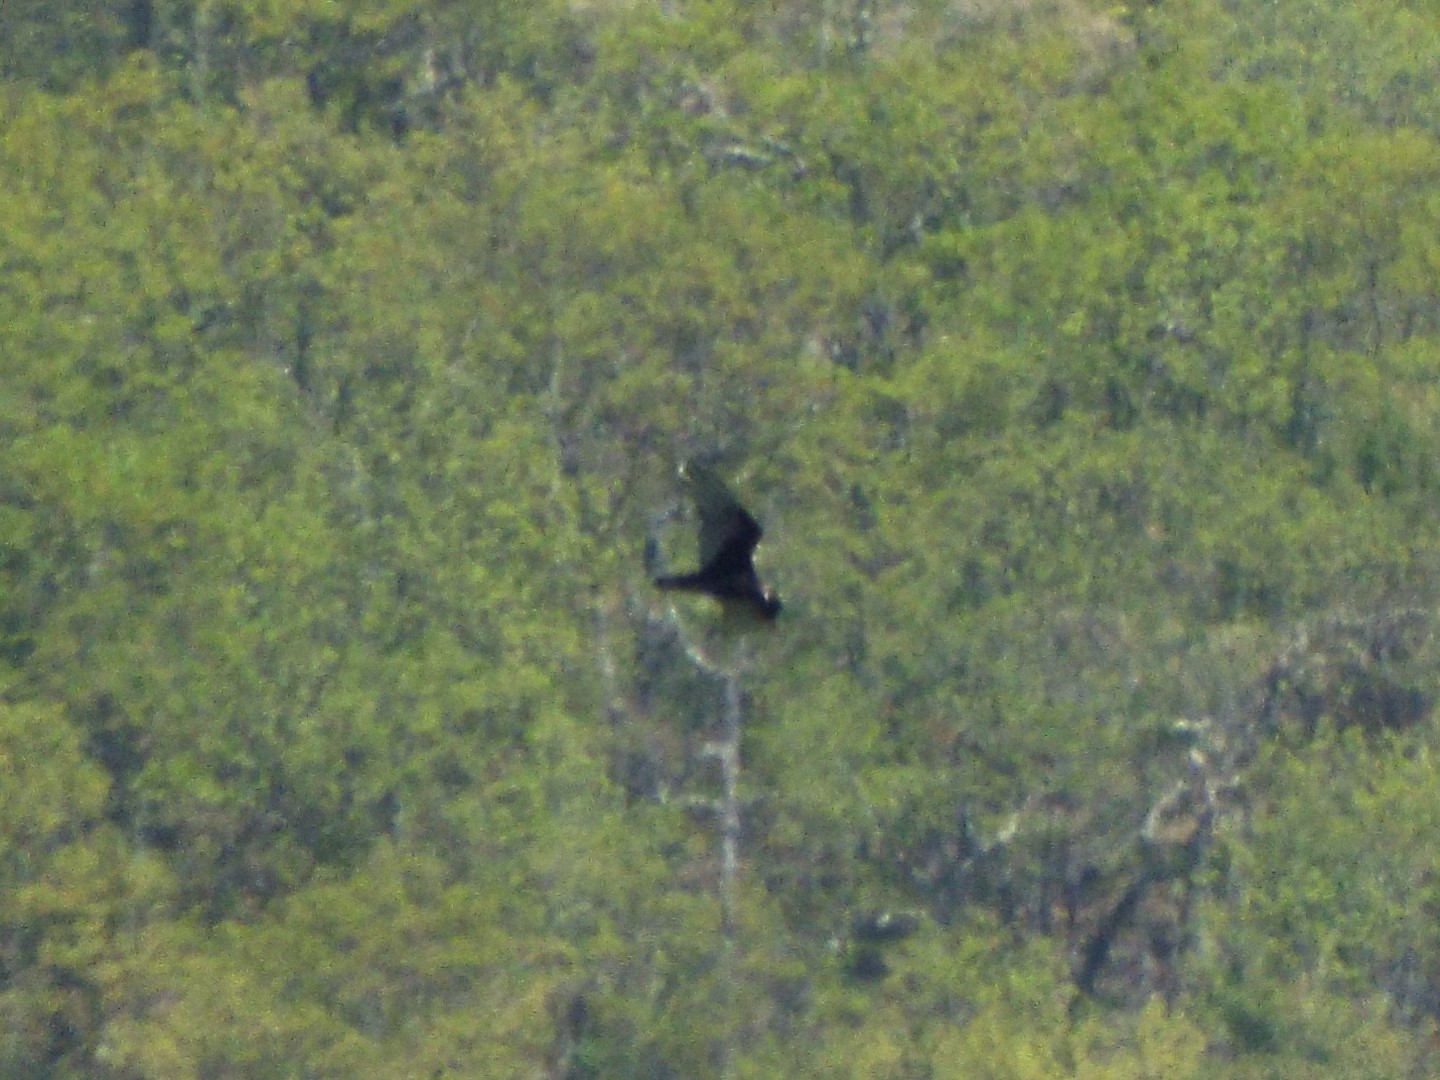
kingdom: Animalia
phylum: Chordata
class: Aves
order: Accipitriformes
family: Cathartidae
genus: Cathartes
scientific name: Cathartes aura
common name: Turkey vulture
